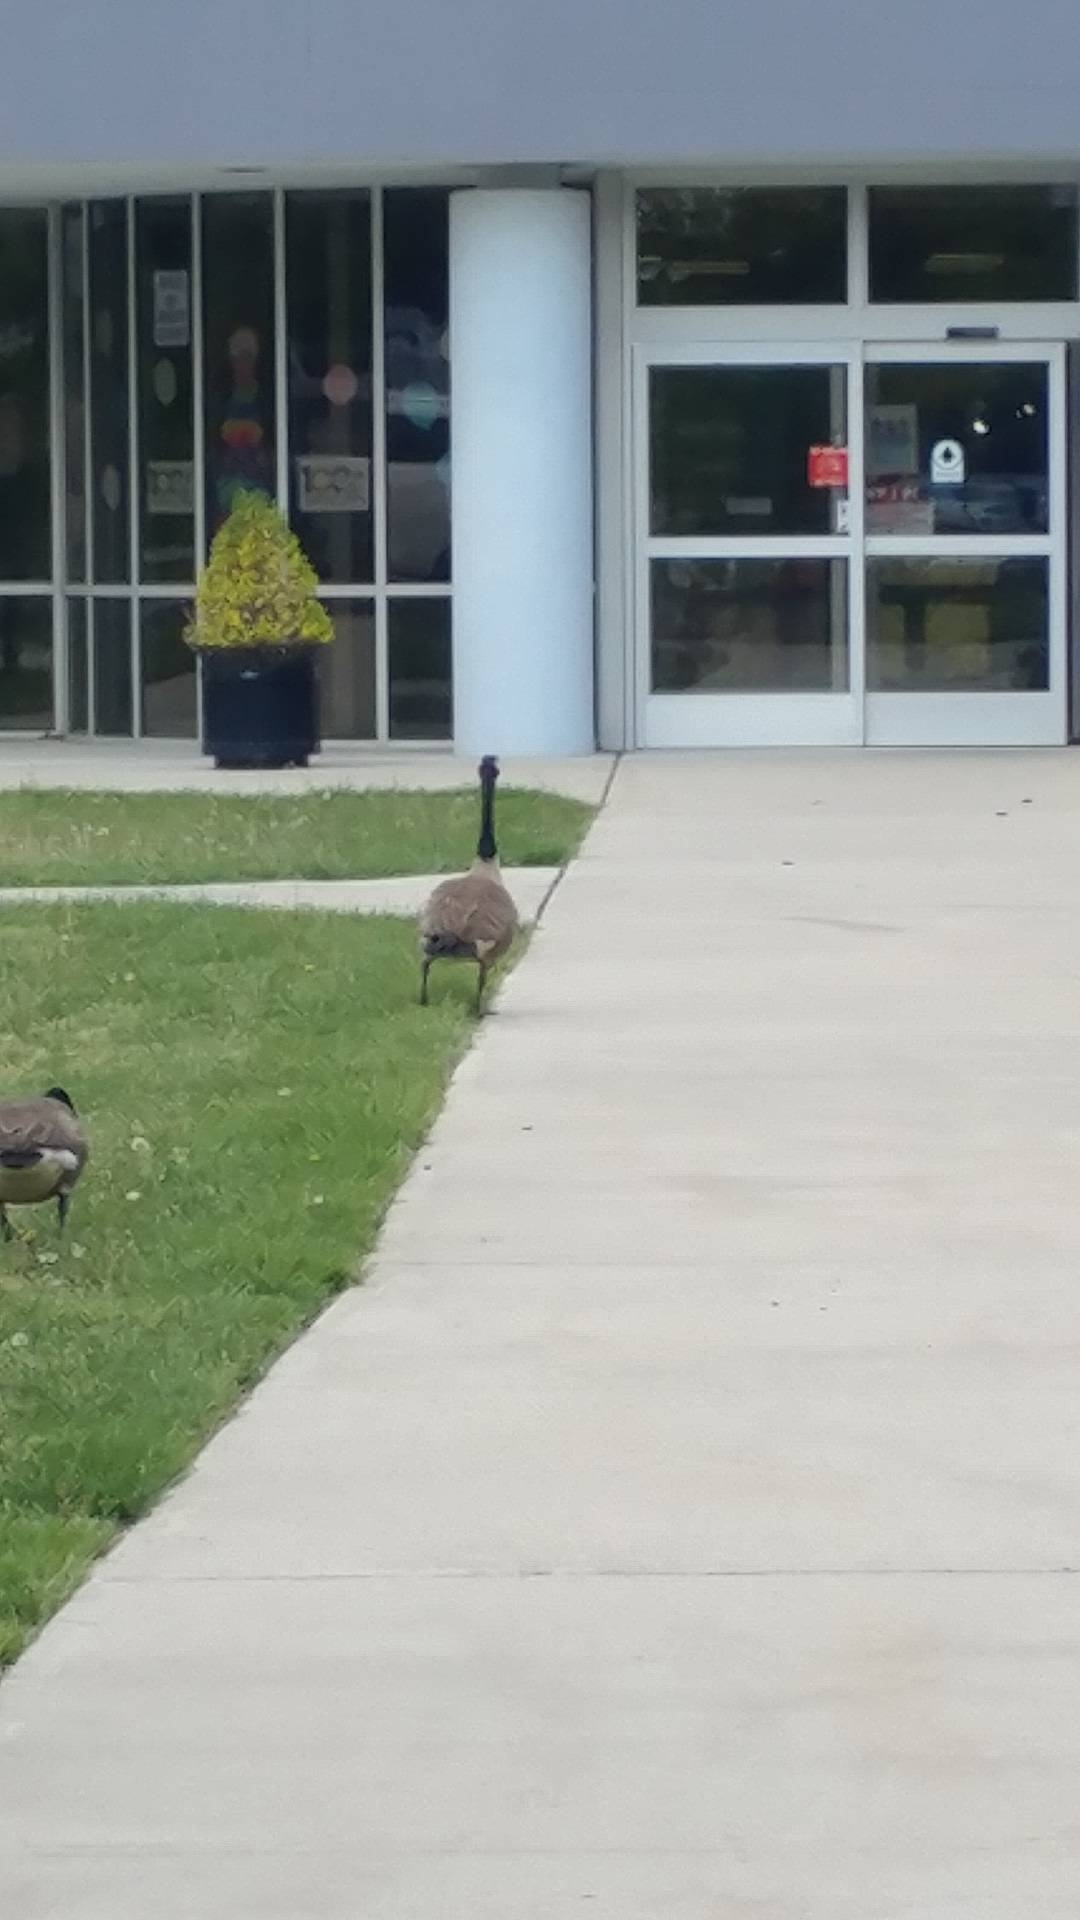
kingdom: Animalia
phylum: Chordata
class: Aves
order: Anseriformes
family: Anatidae
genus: Branta
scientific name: Branta canadensis
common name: Canada goose
